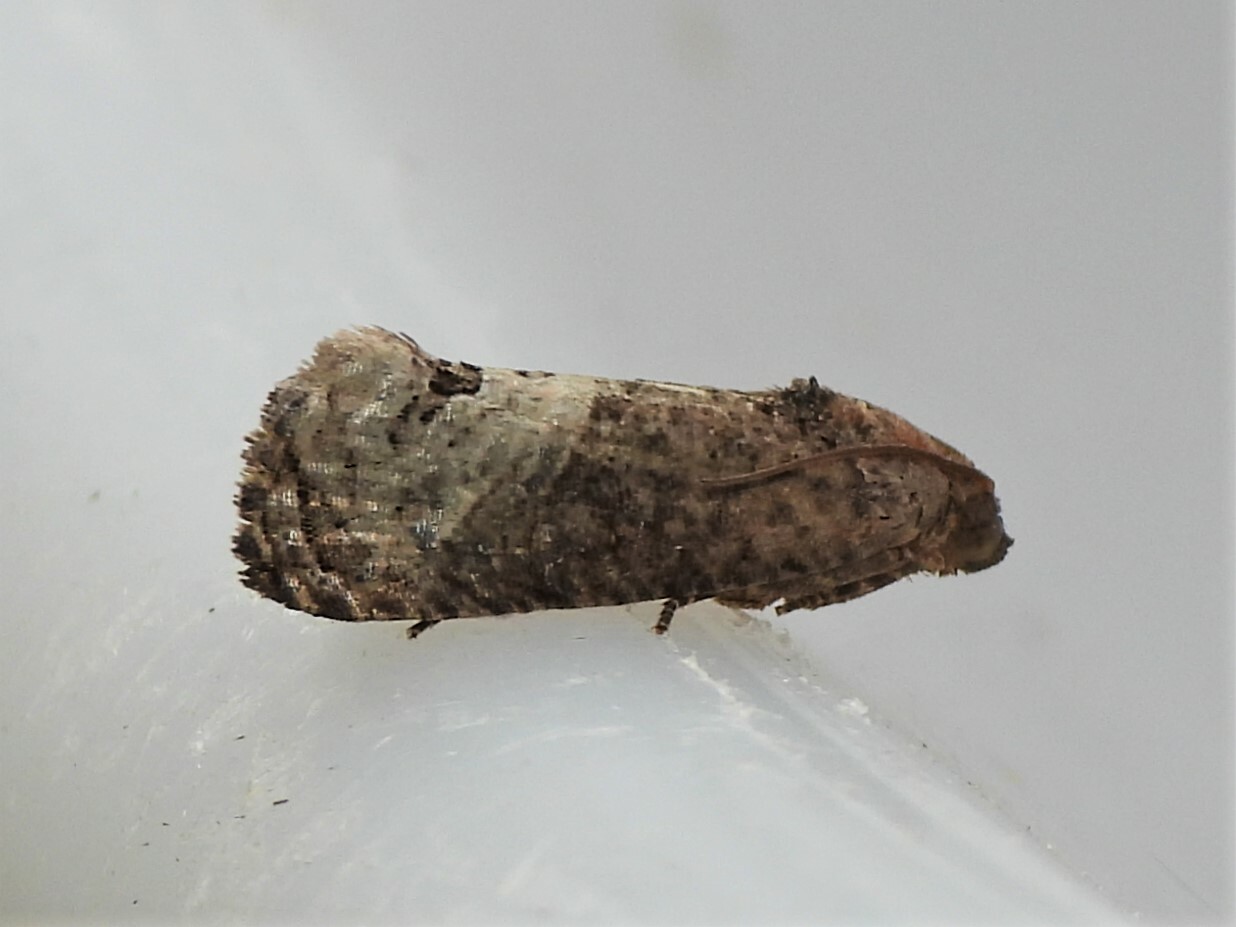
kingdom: Animalia
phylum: Arthropoda
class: Insecta
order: Lepidoptera
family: Tortricidae
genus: Ecdytolopha
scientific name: Ecdytolopha insiticiana
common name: Locust twig borer moth
